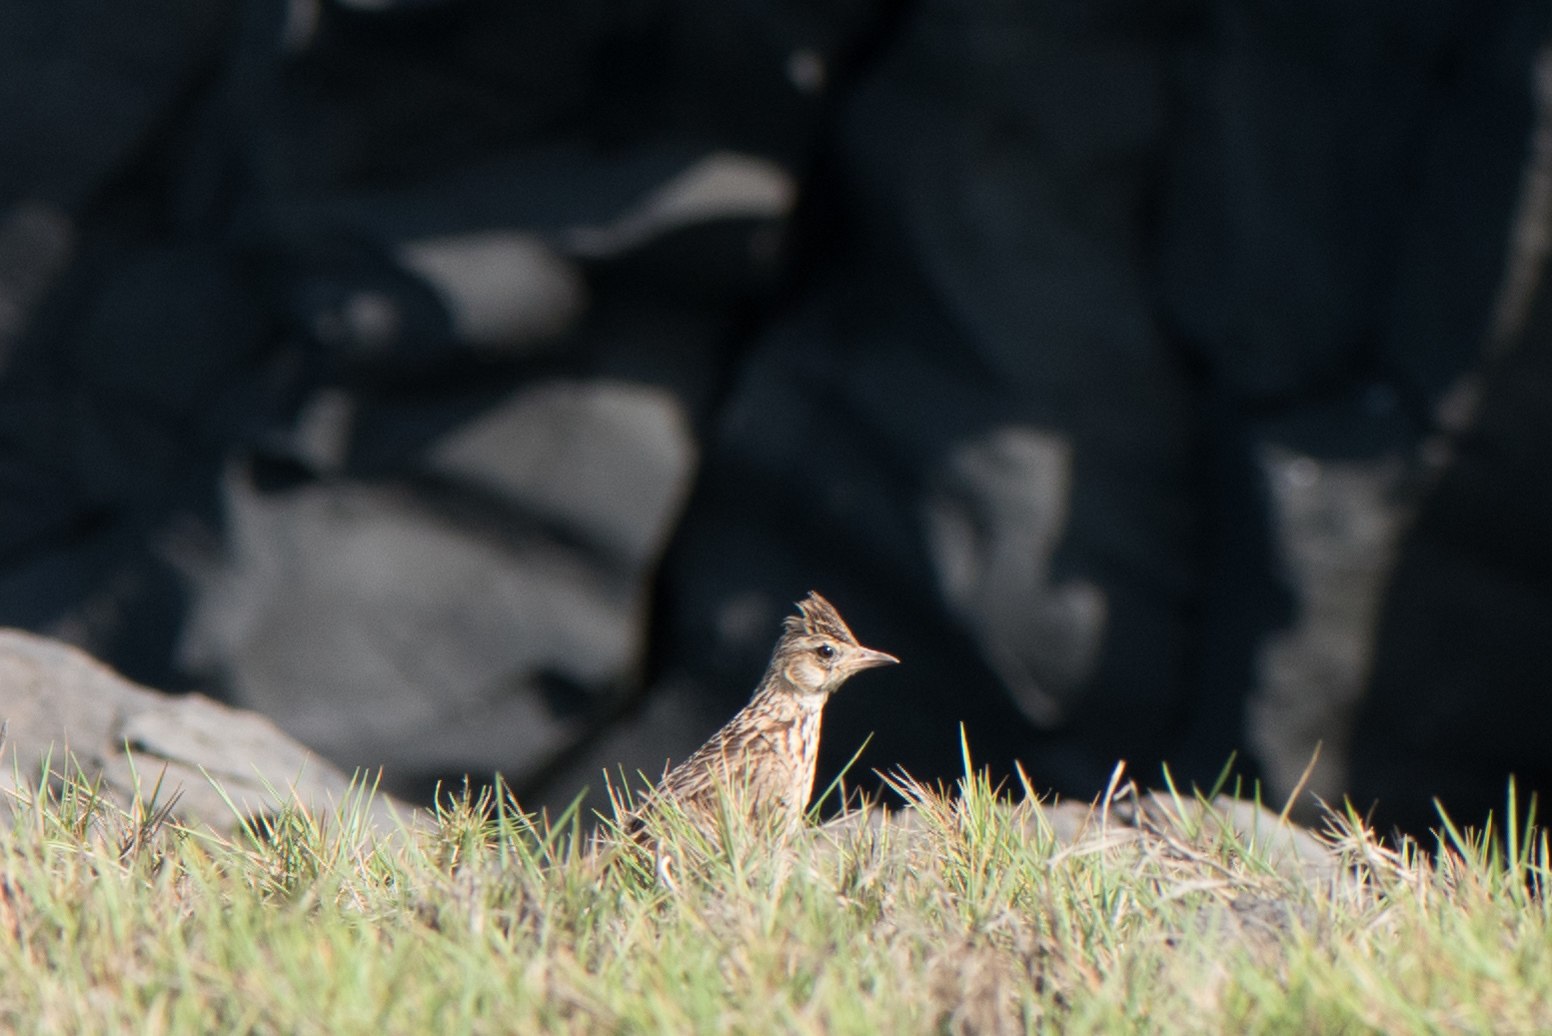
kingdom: Animalia
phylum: Chordata
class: Aves
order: Passeriformes
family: Alaudidae
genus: Alauda
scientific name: Alauda gulgula
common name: Oriental skylark
